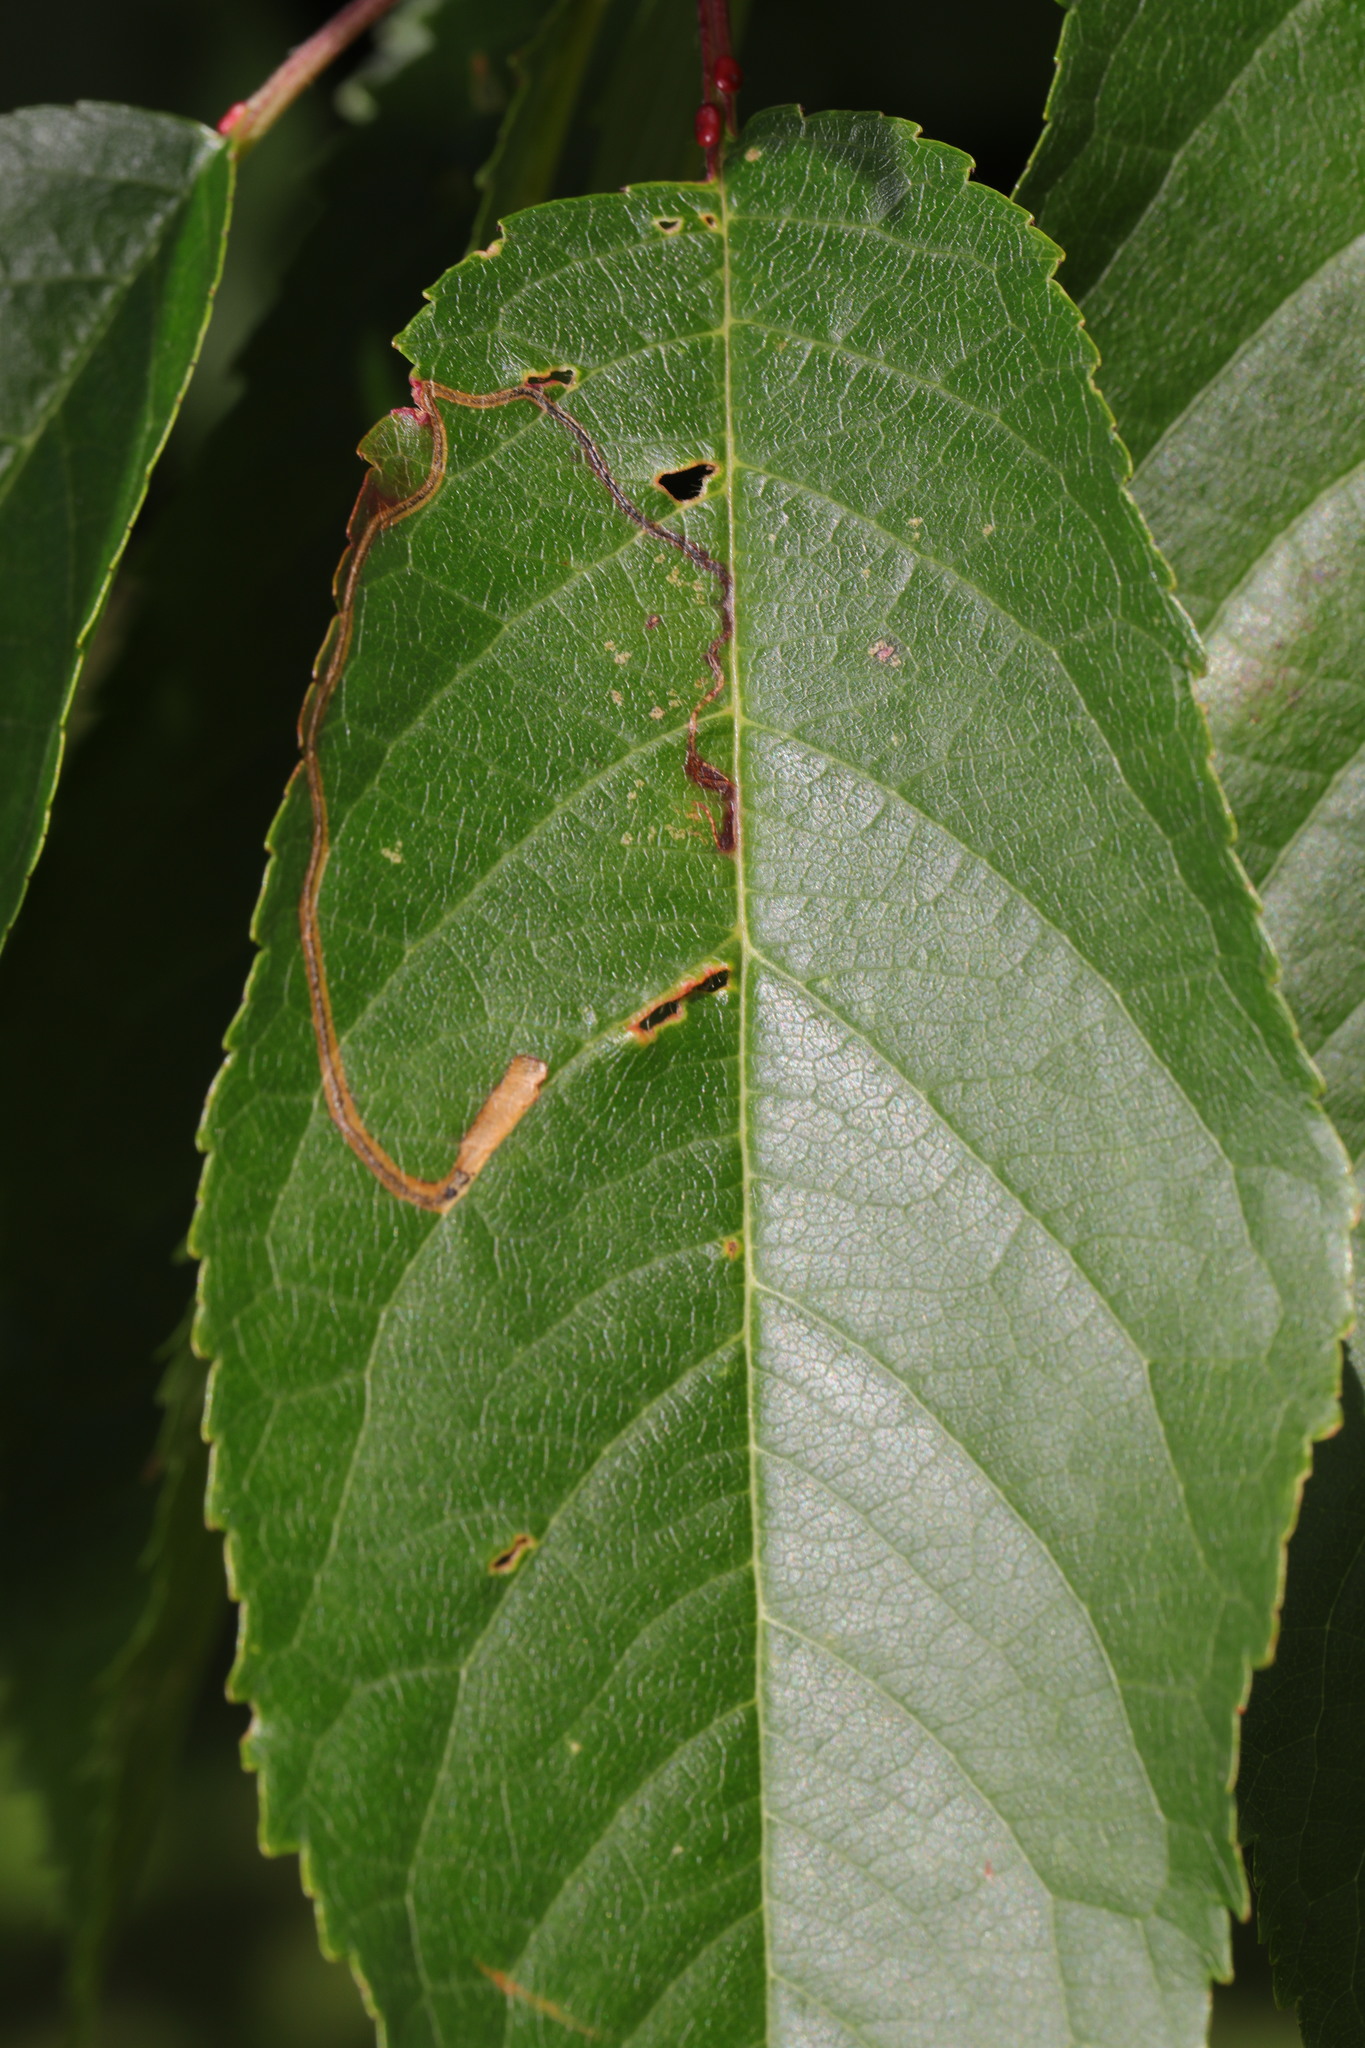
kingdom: Animalia
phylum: Arthropoda
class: Insecta
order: Lepidoptera
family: Lyonetiidae
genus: Lyonetia
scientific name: Lyonetia clerkella
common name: Apple leaf miner
